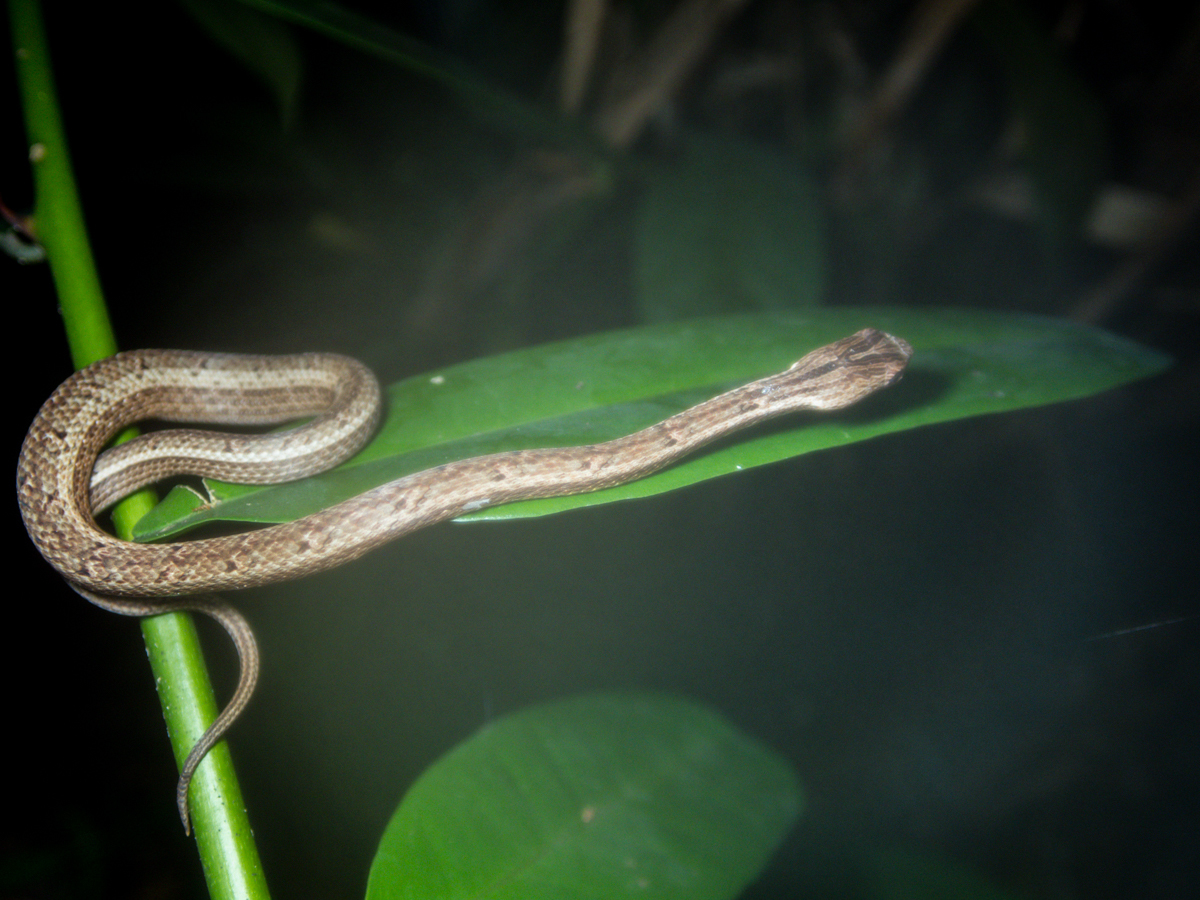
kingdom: Animalia
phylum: Chordata
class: Squamata
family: Pseudaspididae
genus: Psammodynastes
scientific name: Psammodynastes pulverulentus
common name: Common mock viper
